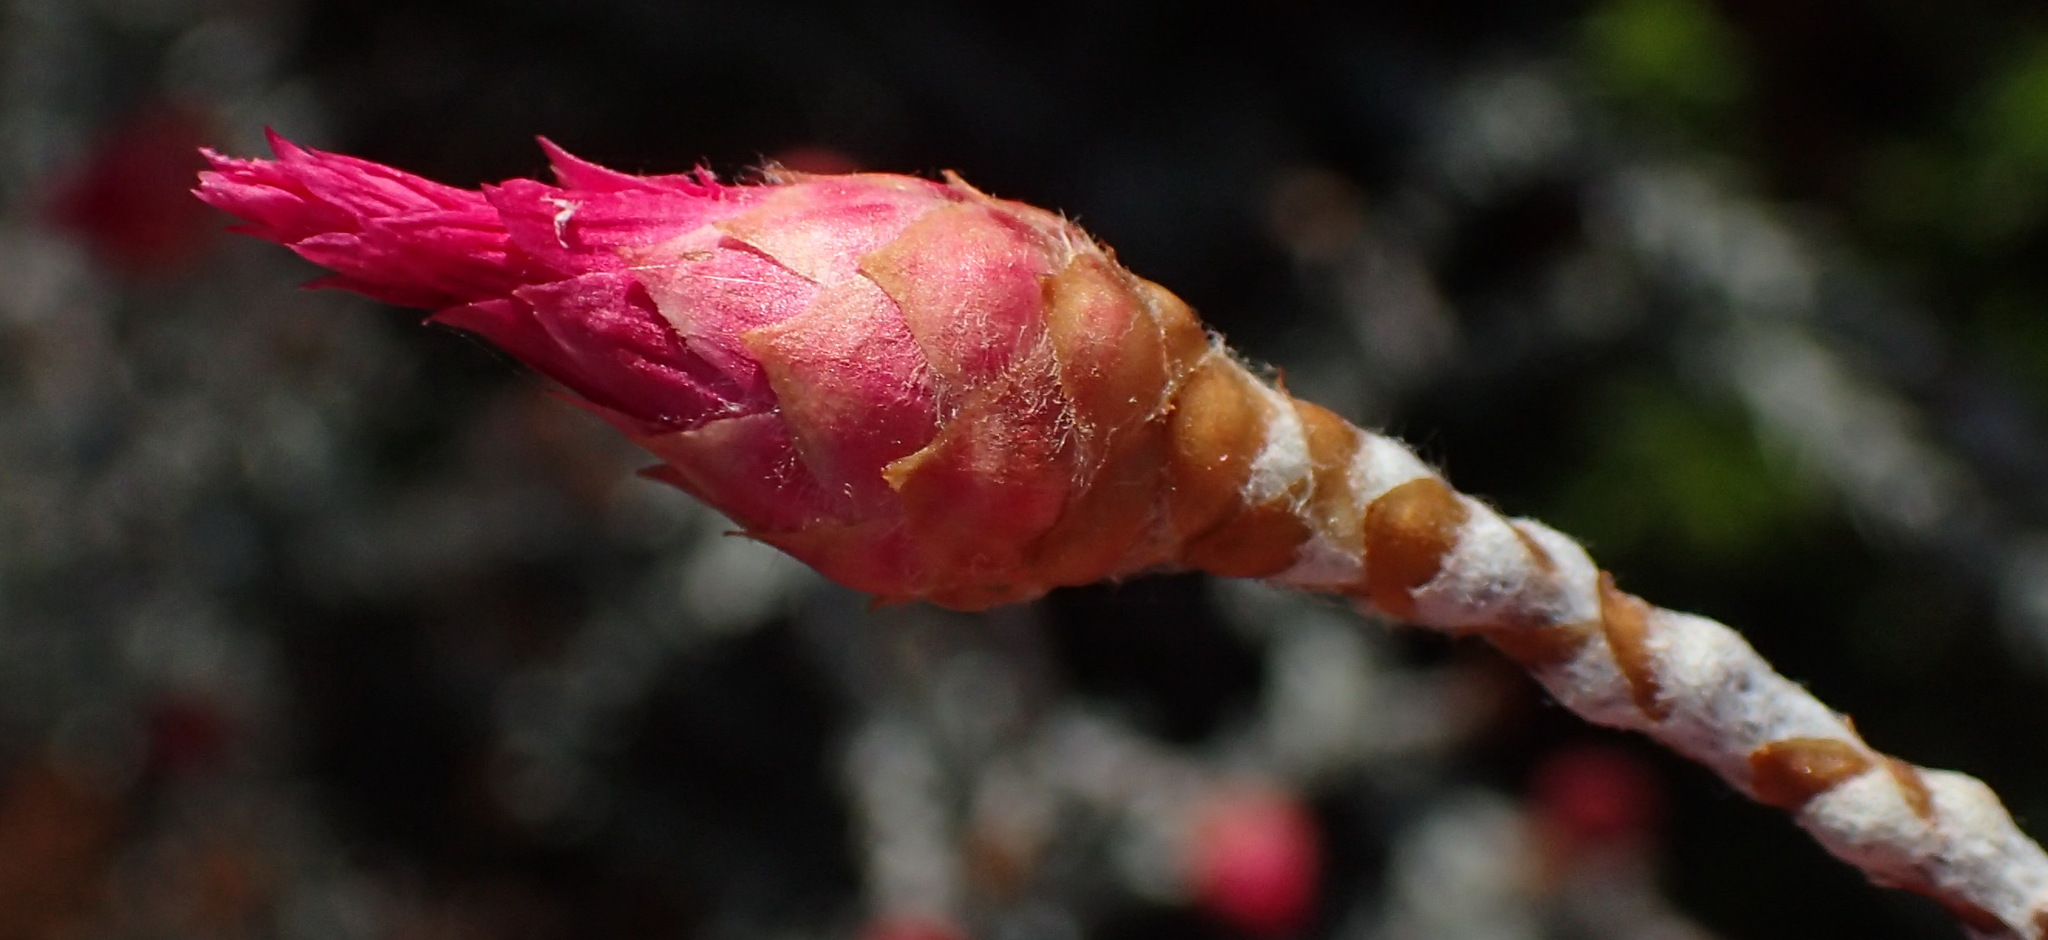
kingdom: Plantae
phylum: Tracheophyta
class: Magnoliopsida
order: Asterales
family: Asteraceae
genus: Syncarpha
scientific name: Syncarpha canescens
